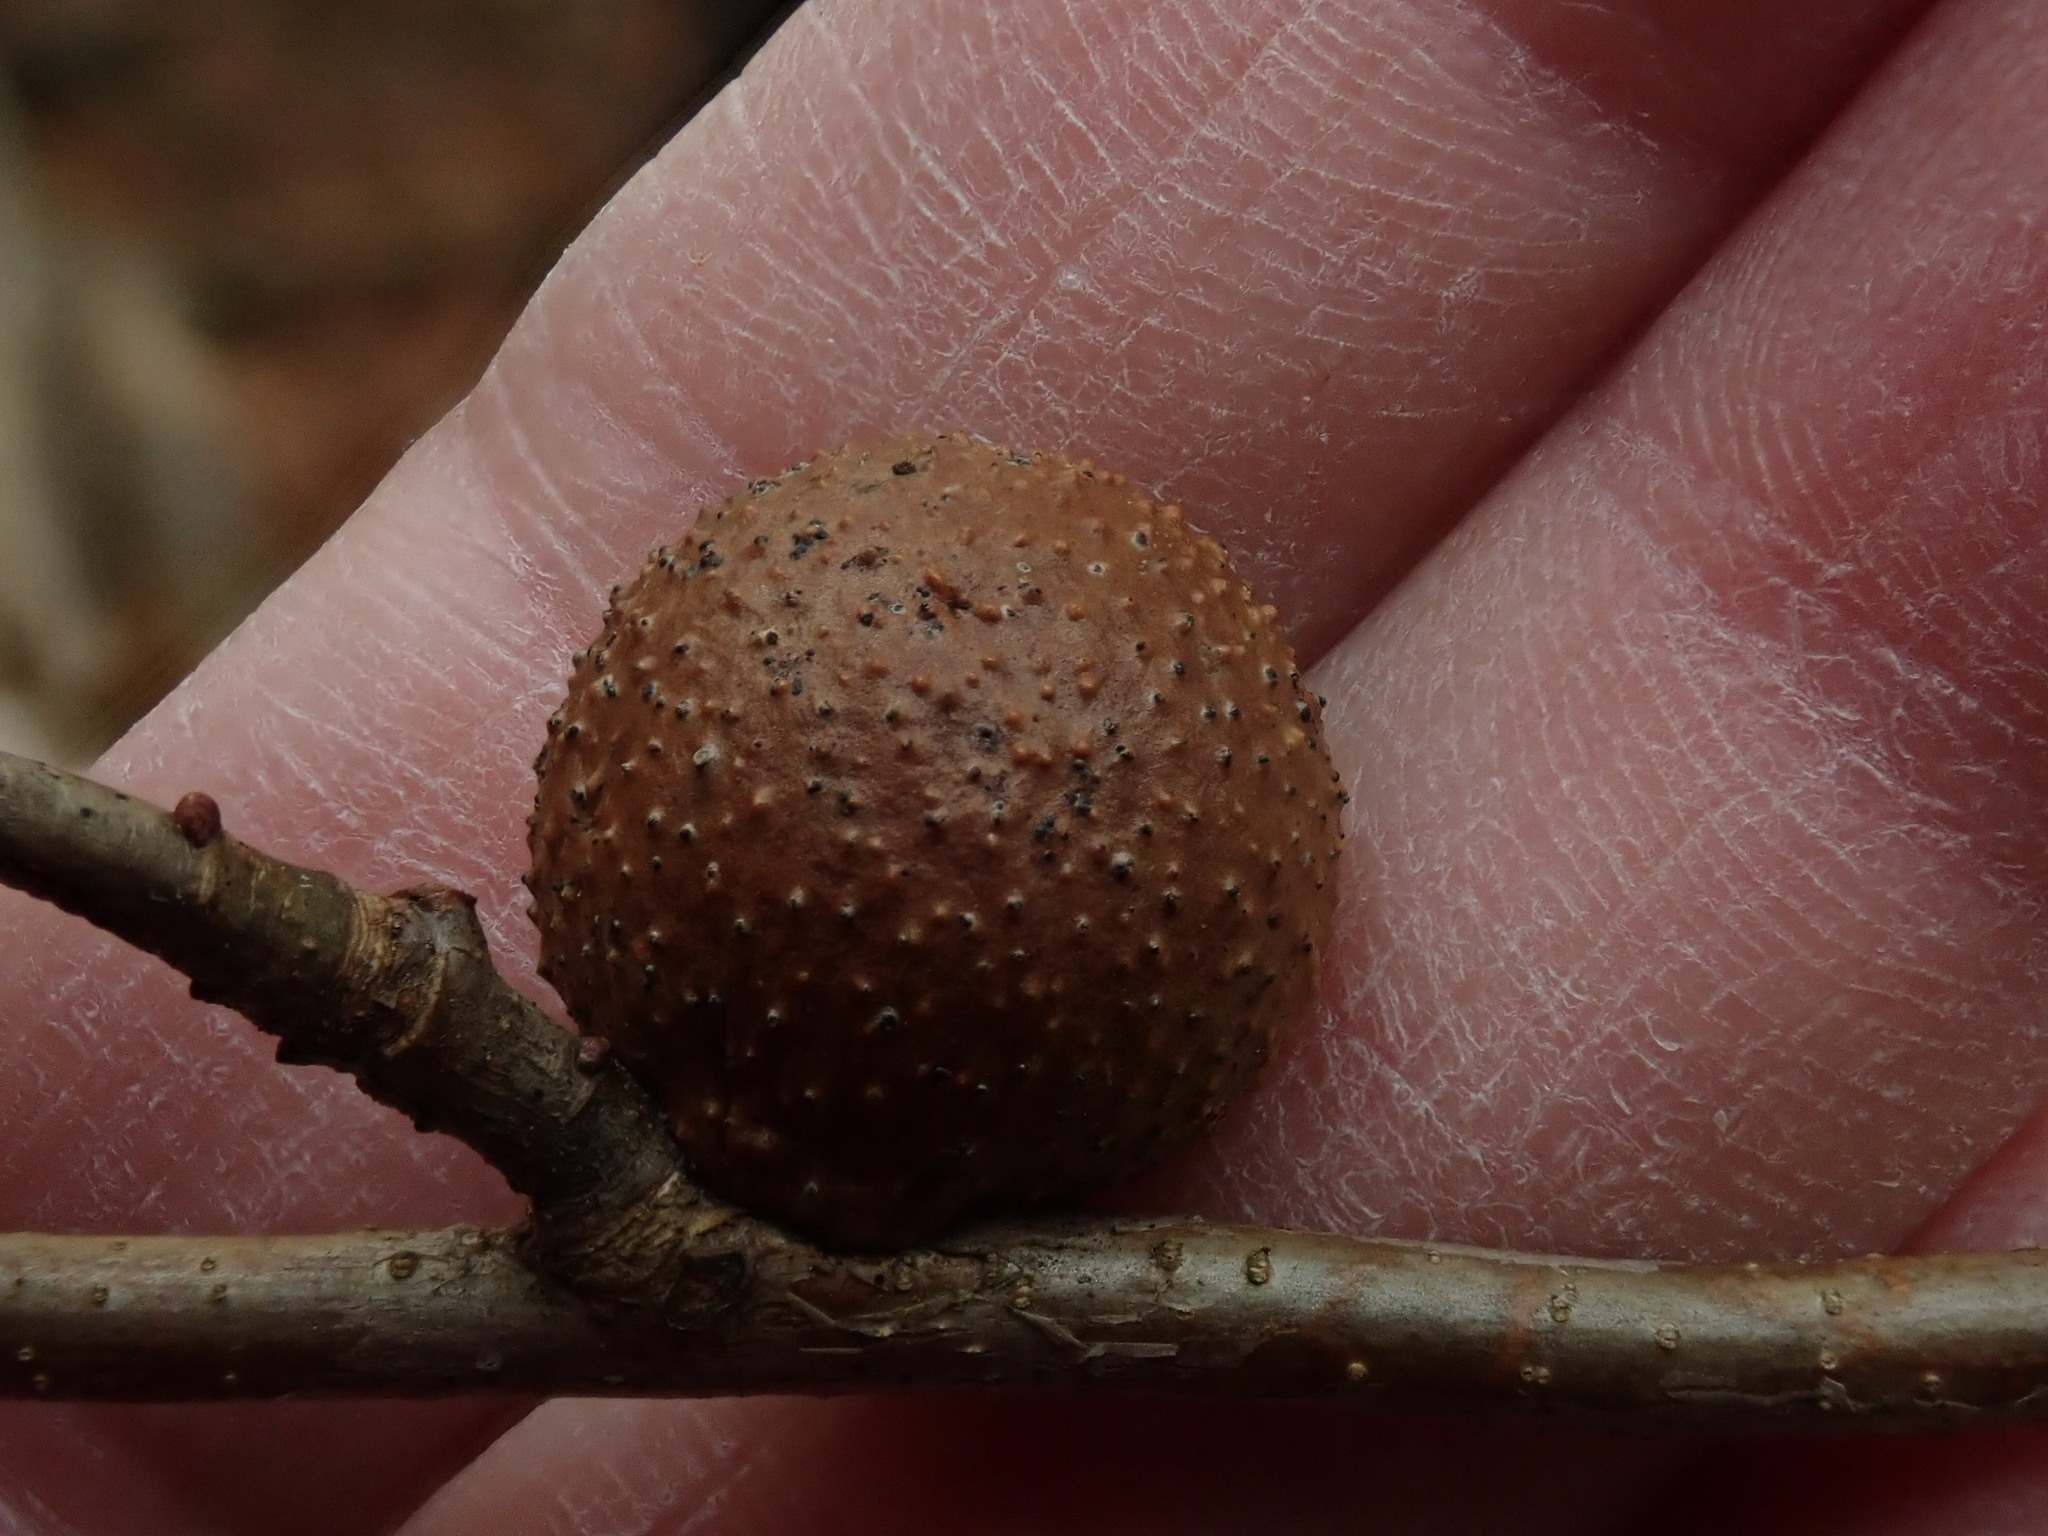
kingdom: Animalia
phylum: Arthropoda
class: Insecta
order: Hymenoptera
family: Cynipidae
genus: Disholcaspis
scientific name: Disholcaspis quercusglobulus
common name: Round bullet gall wasp
